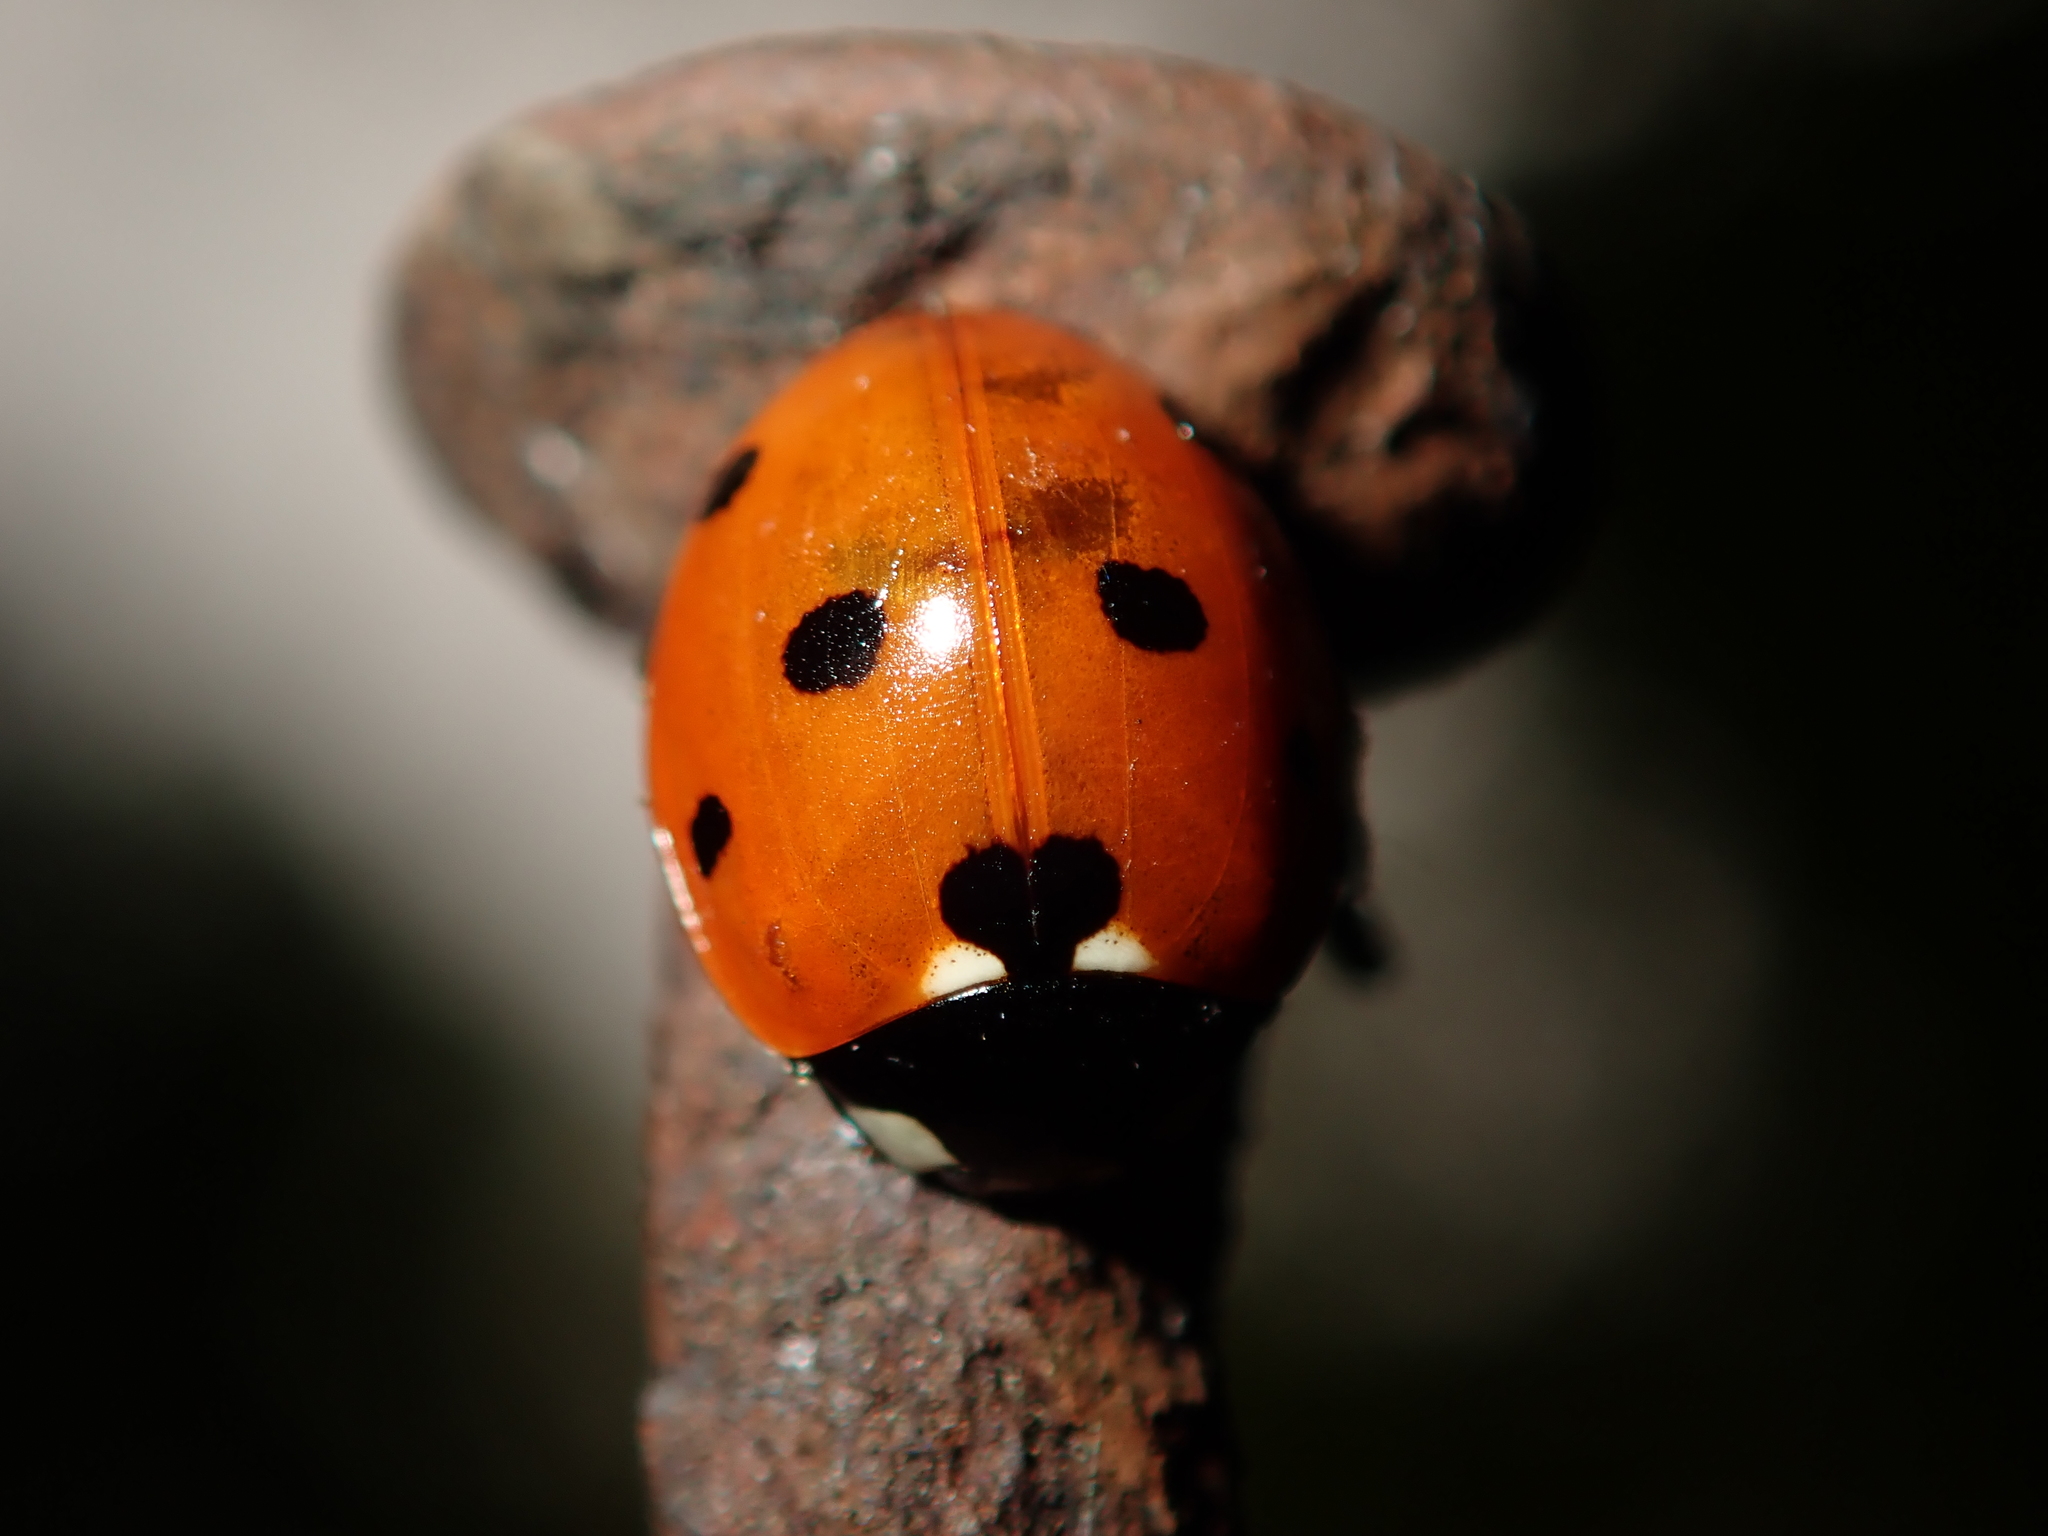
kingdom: Animalia
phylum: Arthropoda
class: Insecta
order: Coleoptera
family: Coccinellidae
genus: Coccinella
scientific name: Coccinella septempunctata
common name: Sevenspotted lady beetle
